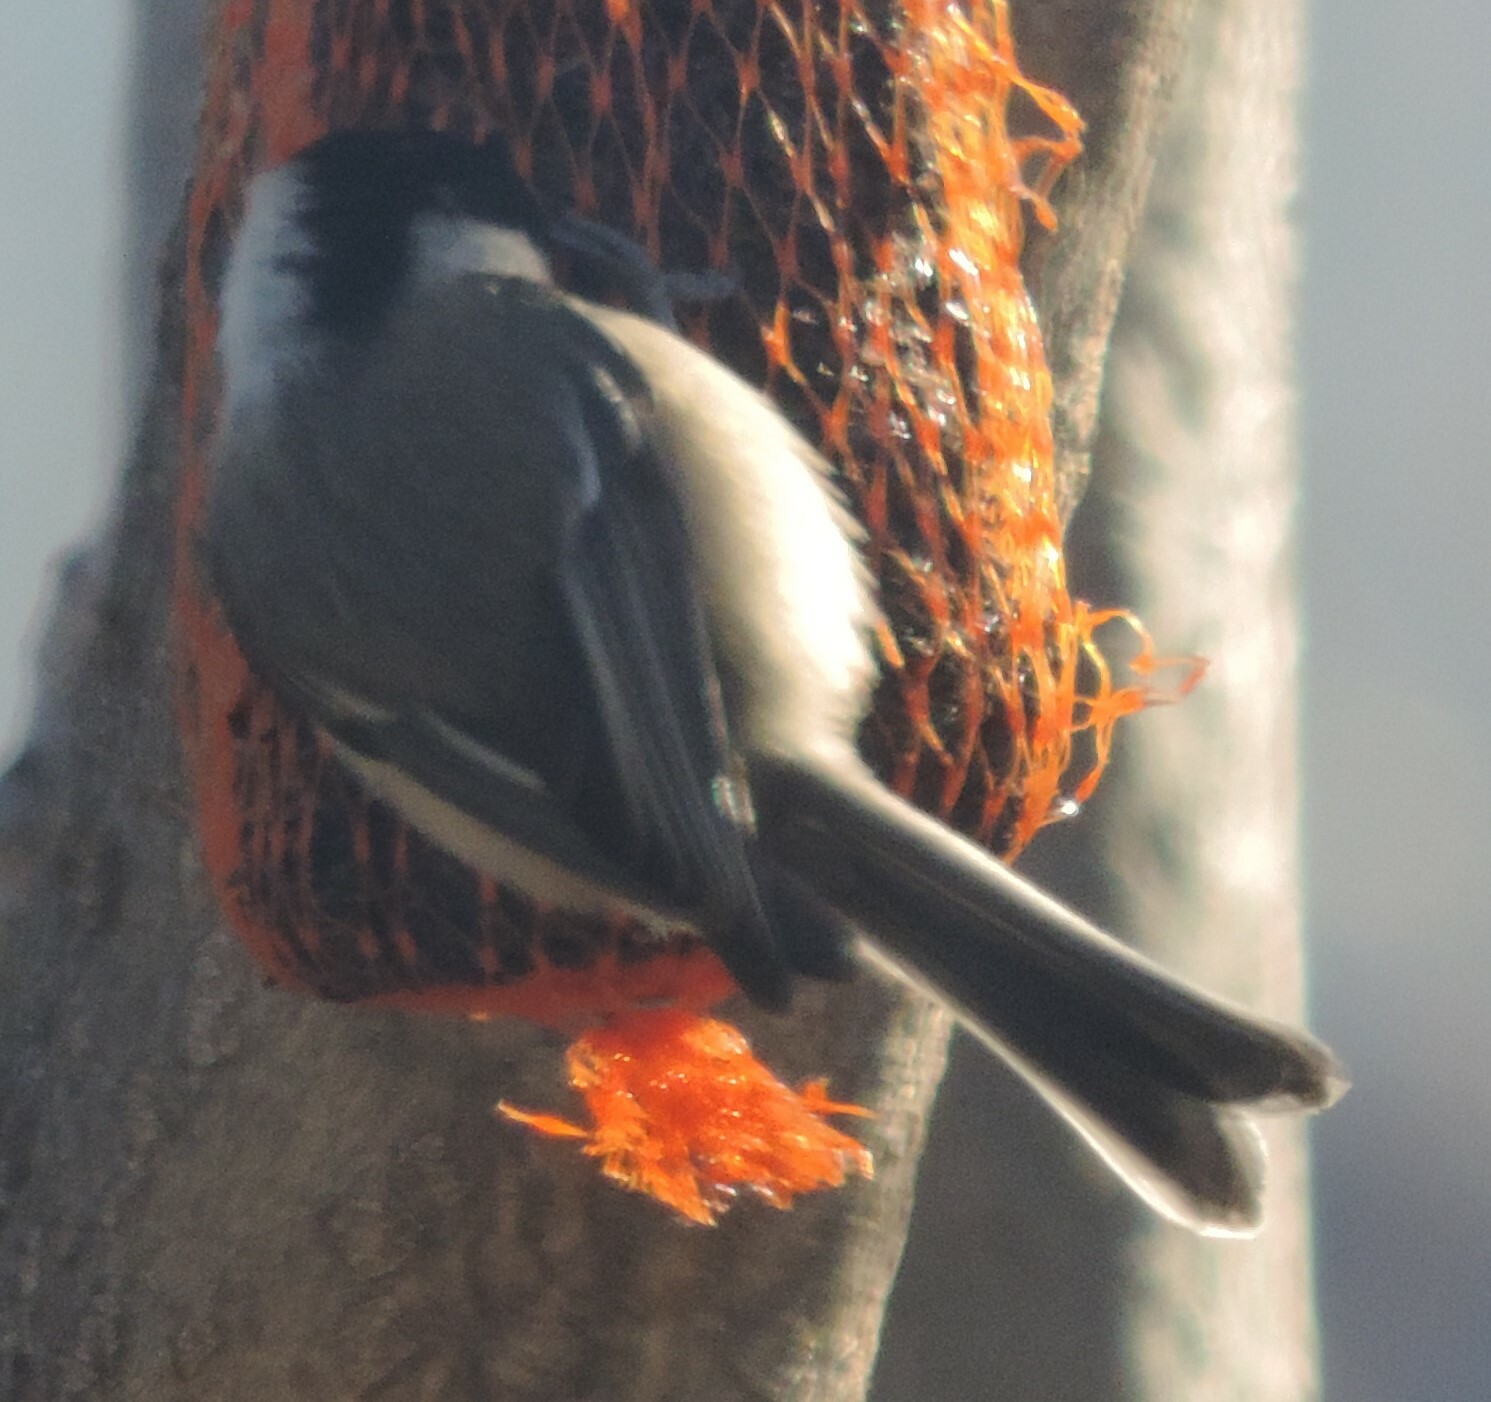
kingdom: Animalia
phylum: Chordata
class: Aves
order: Passeriformes
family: Paridae
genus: Poecile
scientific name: Poecile atricapillus
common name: Black-capped chickadee
